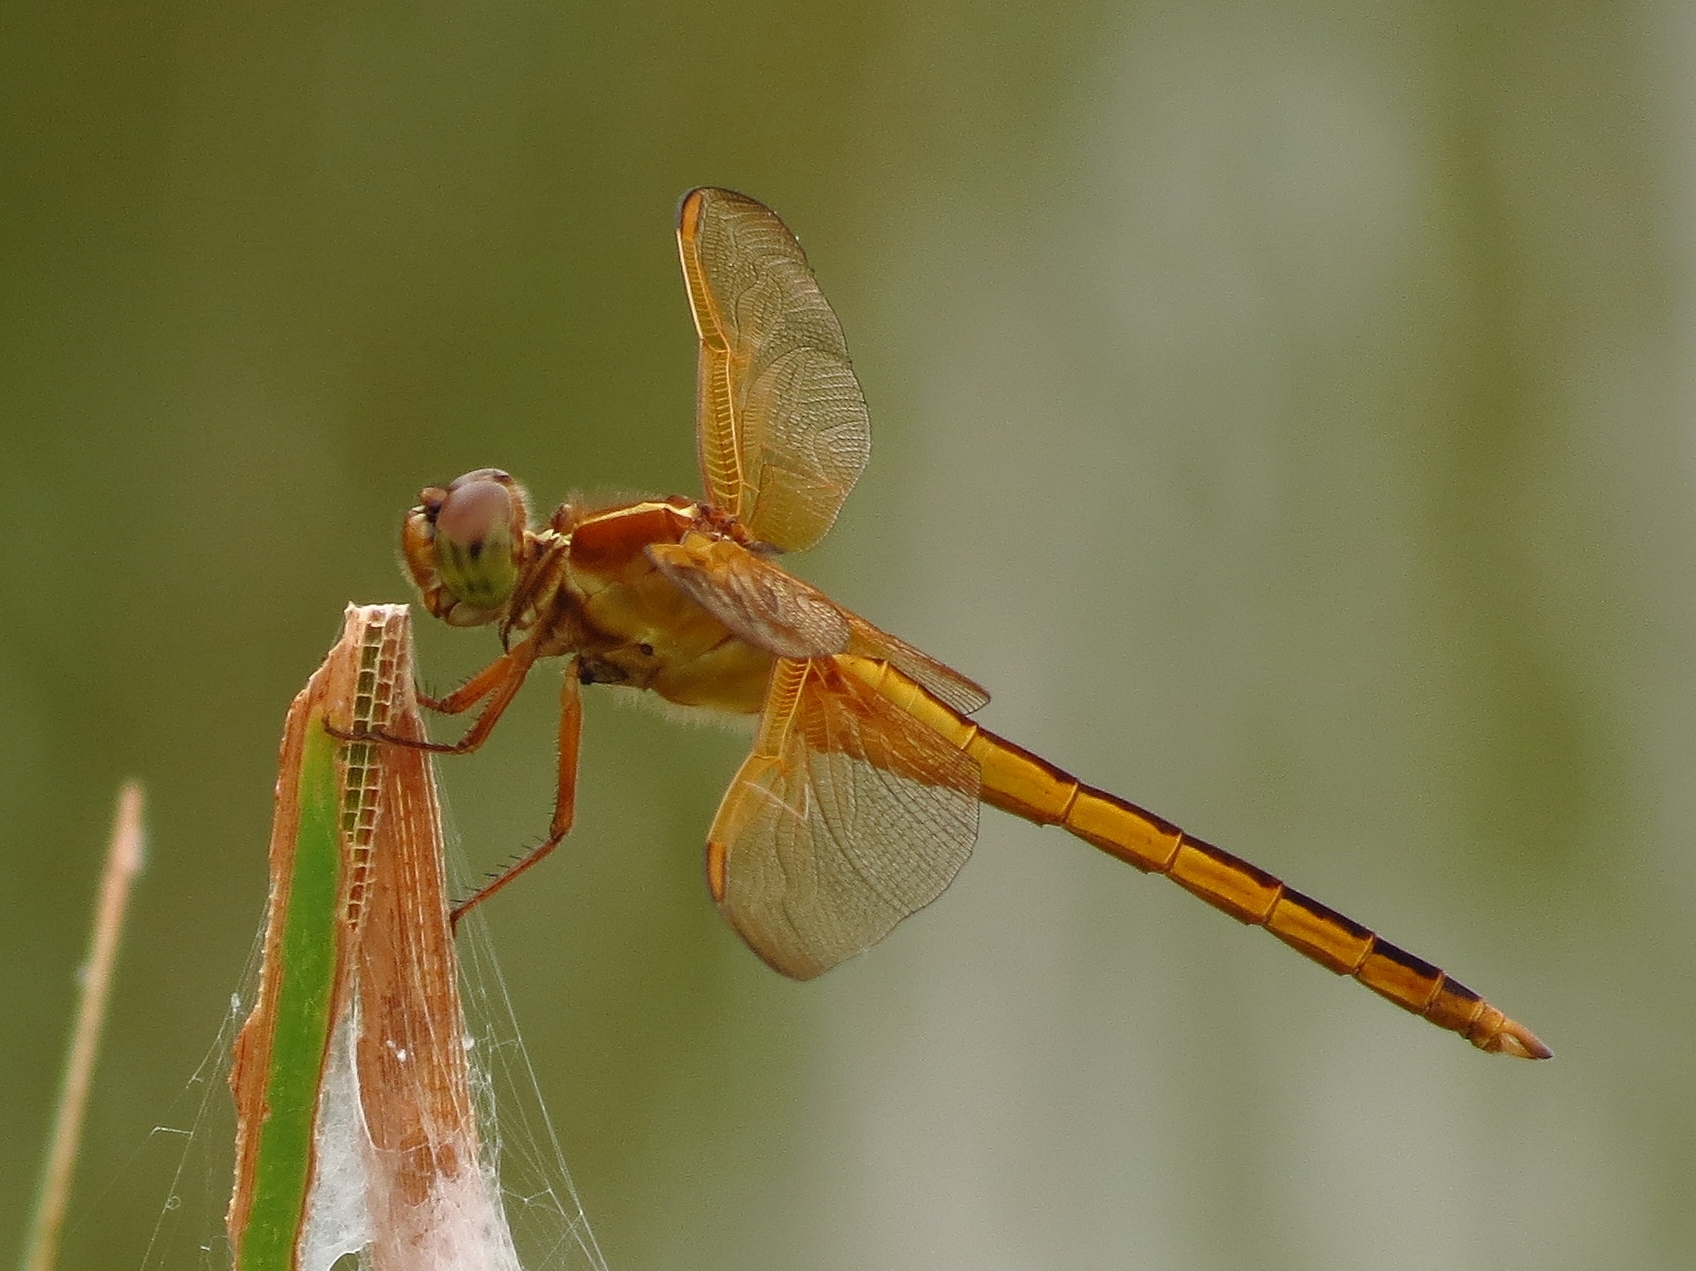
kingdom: Animalia
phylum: Arthropoda
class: Insecta
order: Odonata
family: Libellulidae
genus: Libellula
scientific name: Libellula needhami
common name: Needham's skimmer
